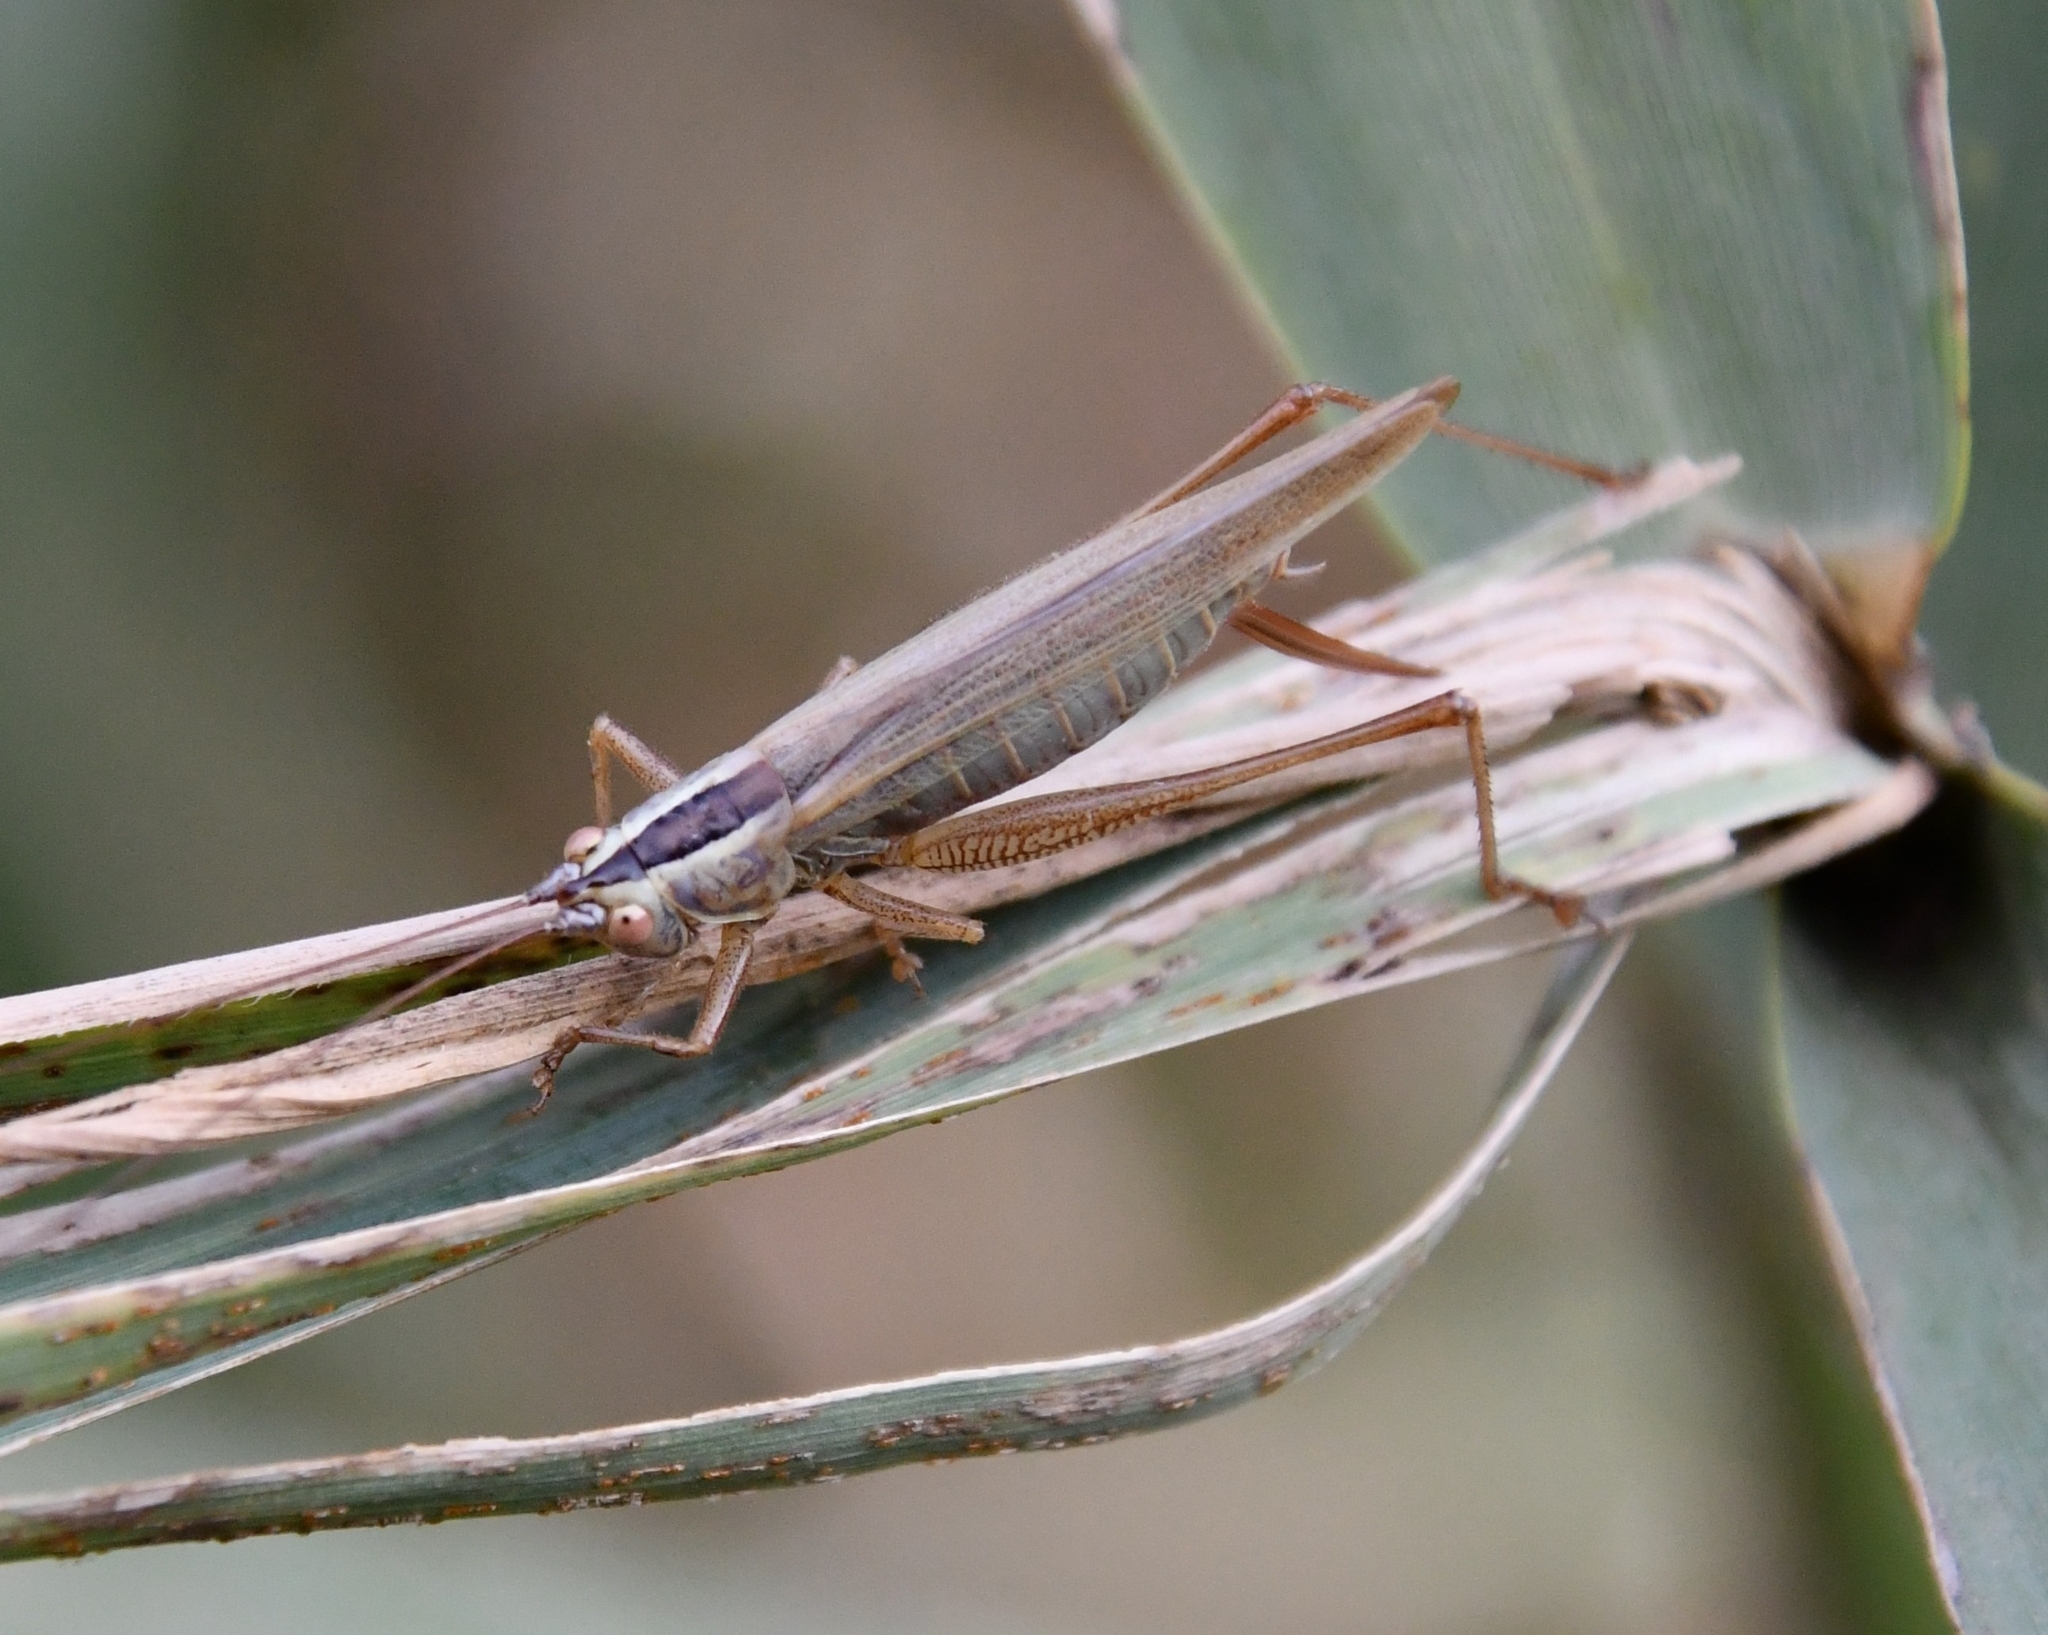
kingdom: Animalia
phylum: Arthropoda
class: Insecta
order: Orthoptera
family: Tettigoniidae
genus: Conocephalus
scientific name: Conocephalus fuscus
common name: Long-winged conehead
